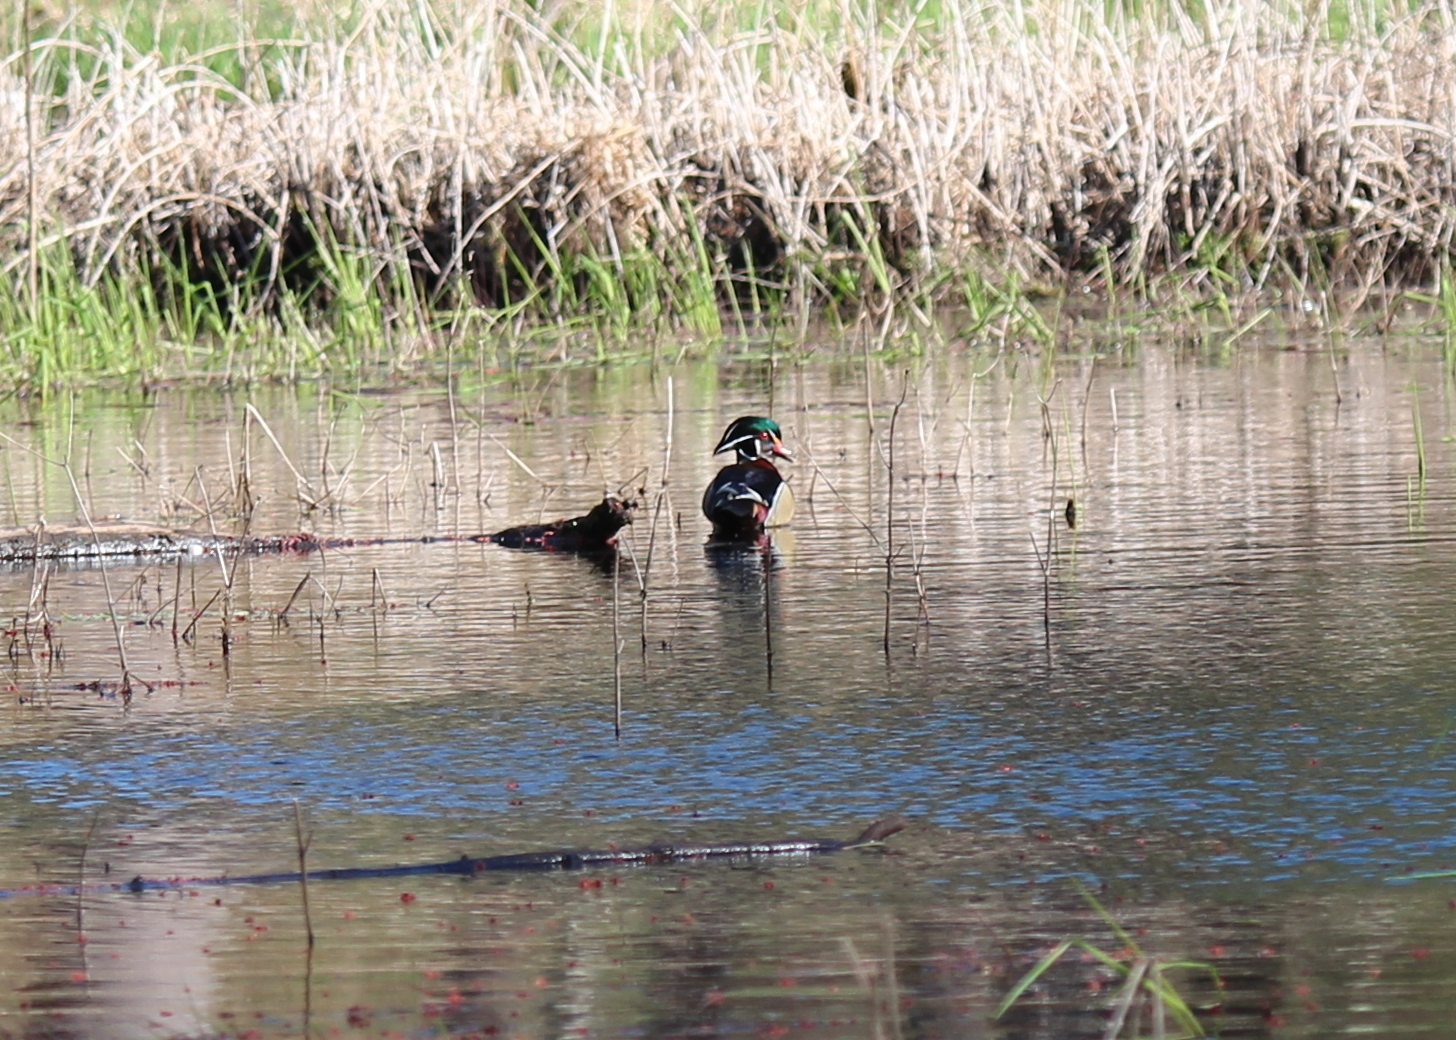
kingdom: Animalia
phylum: Chordata
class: Aves
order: Anseriformes
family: Anatidae
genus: Aix
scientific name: Aix sponsa
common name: Wood duck
